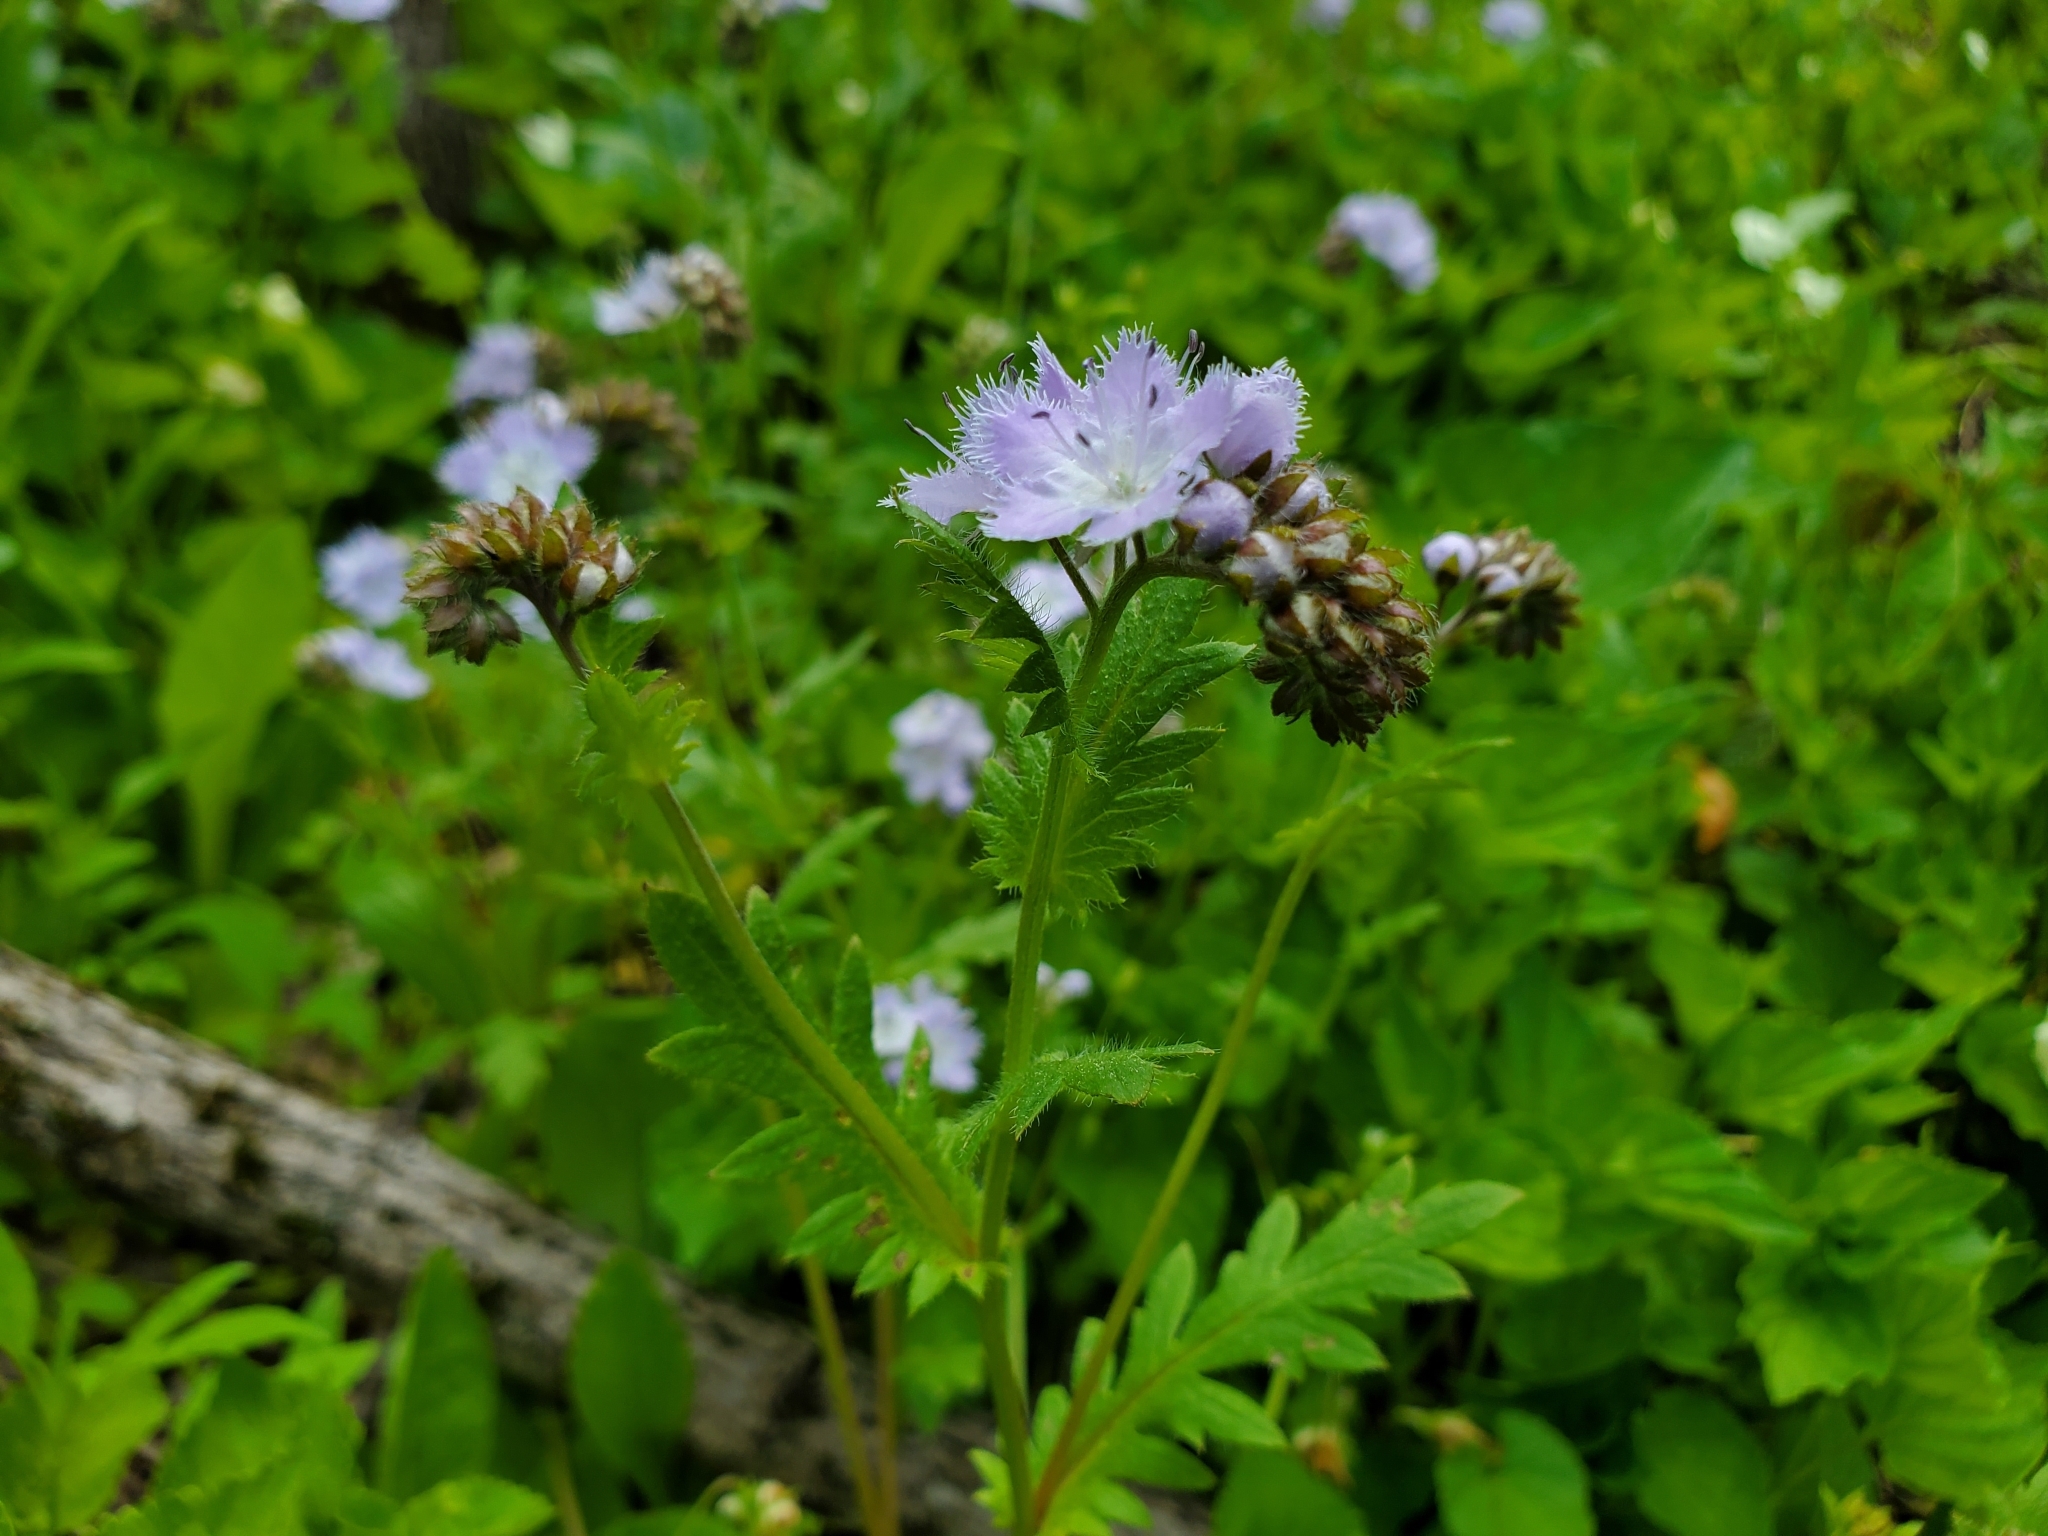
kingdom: Plantae
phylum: Tracheophyta
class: Magnoliopsida
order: Boraginales
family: Hydrophyllaceae
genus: Phacelia
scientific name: Phacelia purshii
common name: Miami-mist
